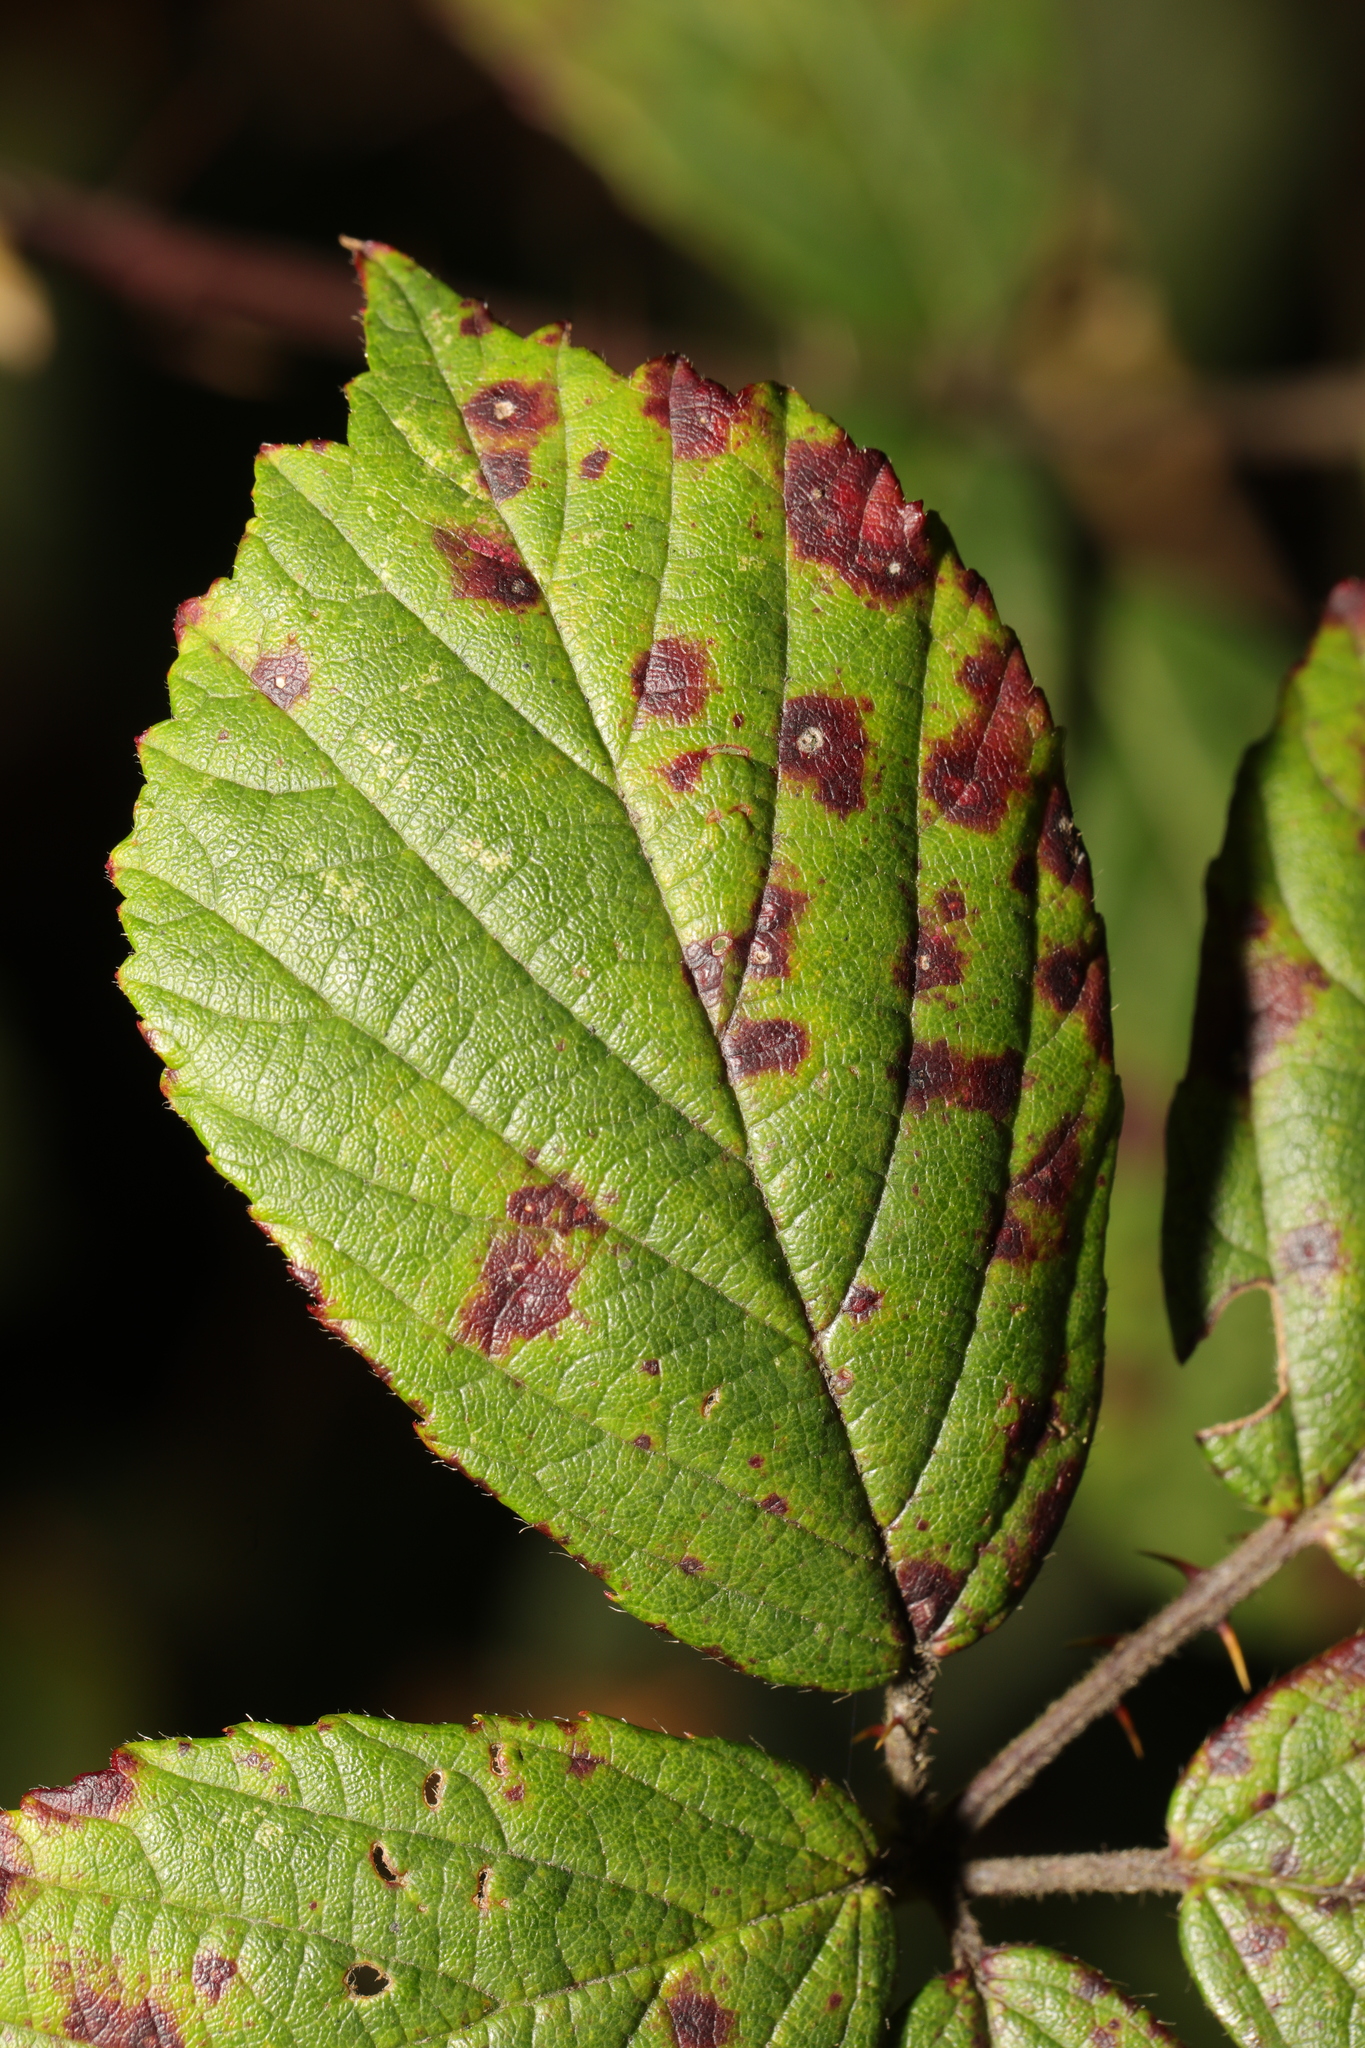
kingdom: Fungi
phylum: Basidiomycota
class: Pucciniomycetes
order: Pucciniales
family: Phragmidiaceae
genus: Phragmidium
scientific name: Phragmidium violaceum
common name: Violet bramble rust
